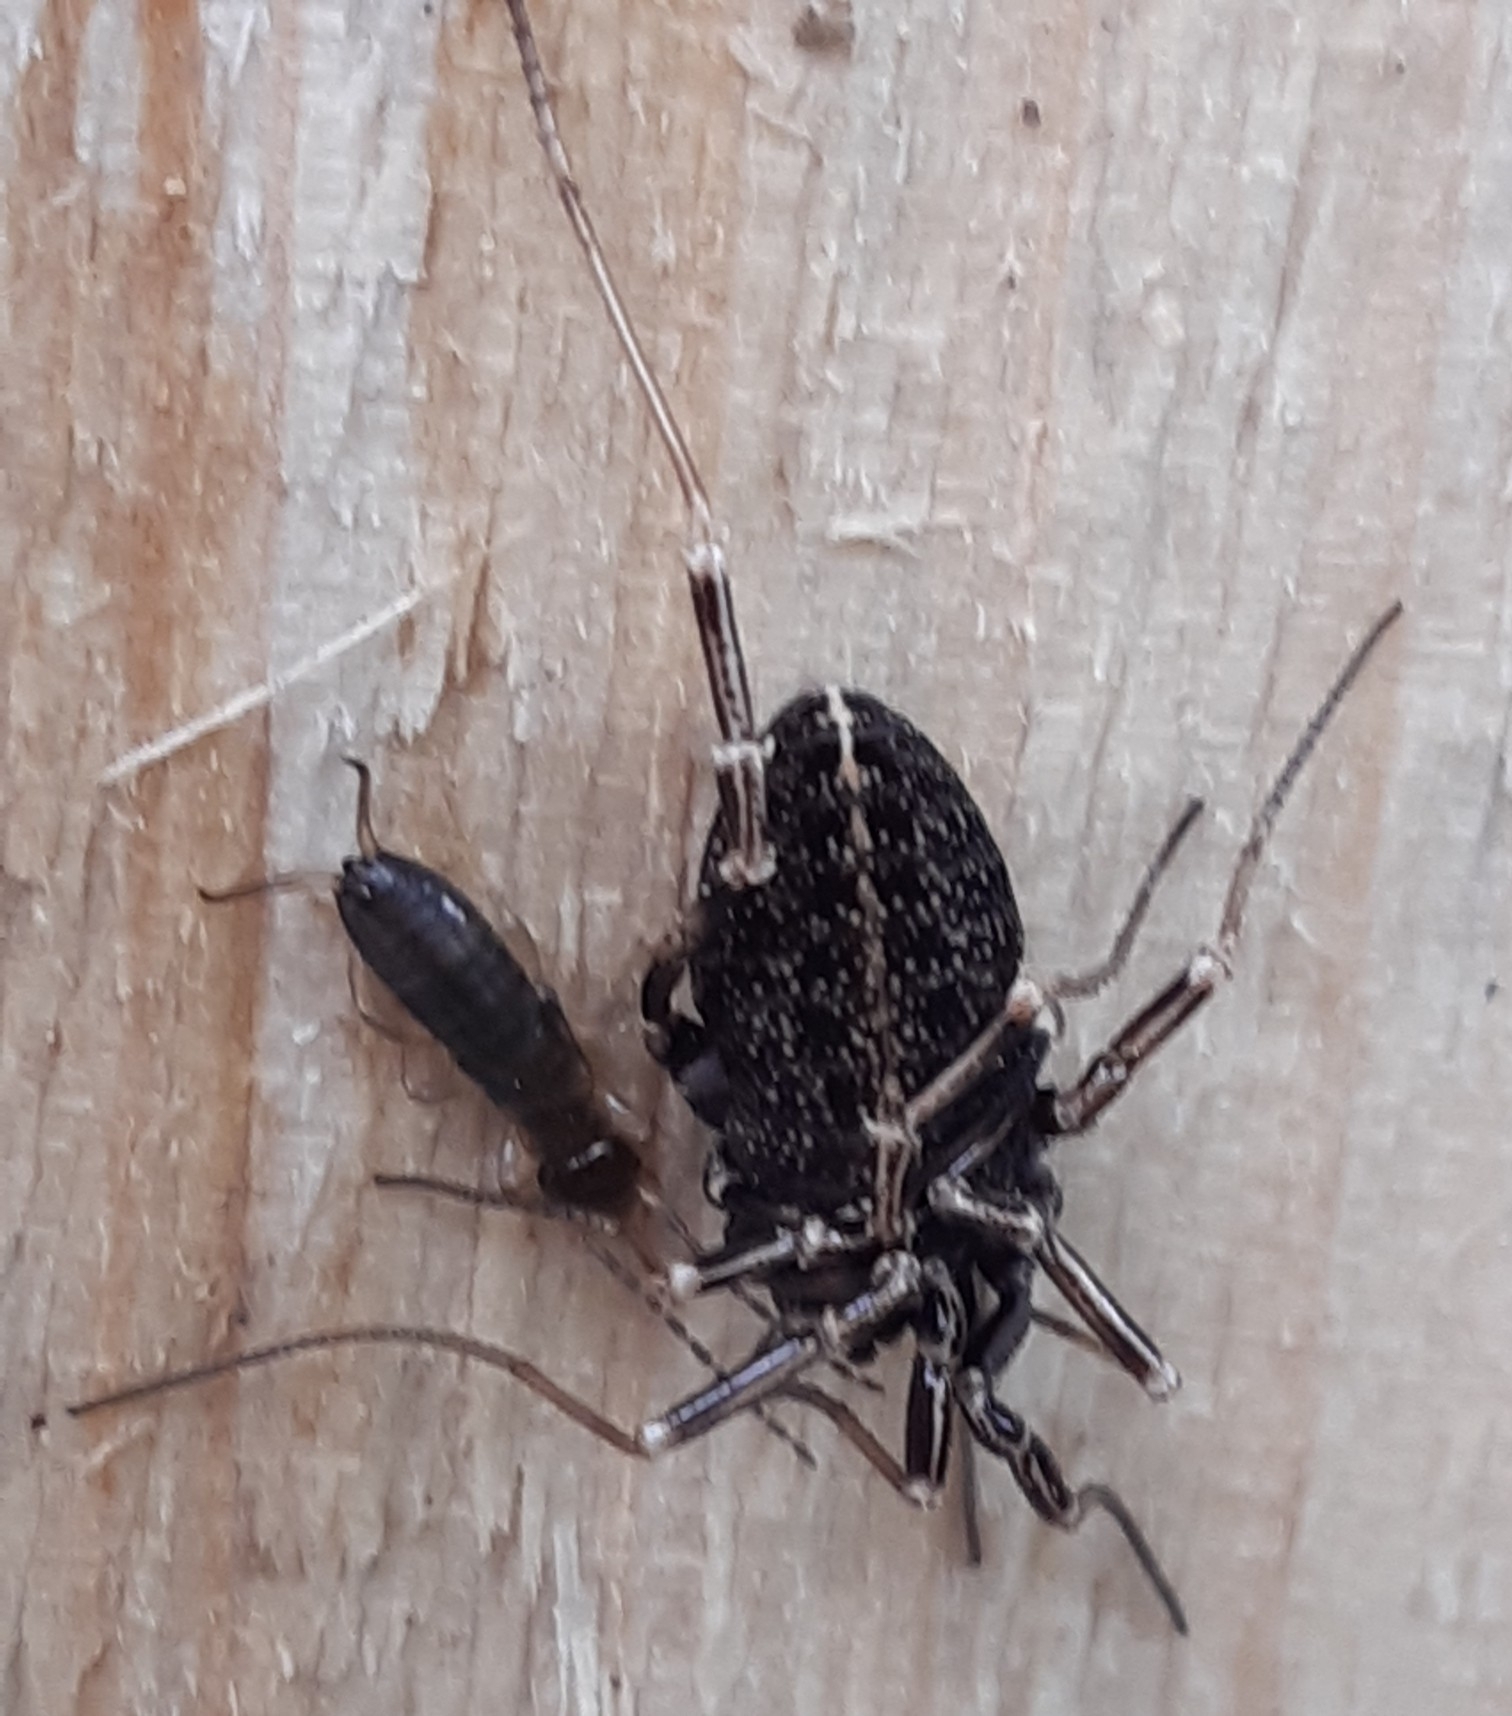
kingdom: Animalia
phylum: Arthropoda
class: Arachnida
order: Opiliones
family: Phalangiidae
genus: Egaenus
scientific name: Egaenus convexus
